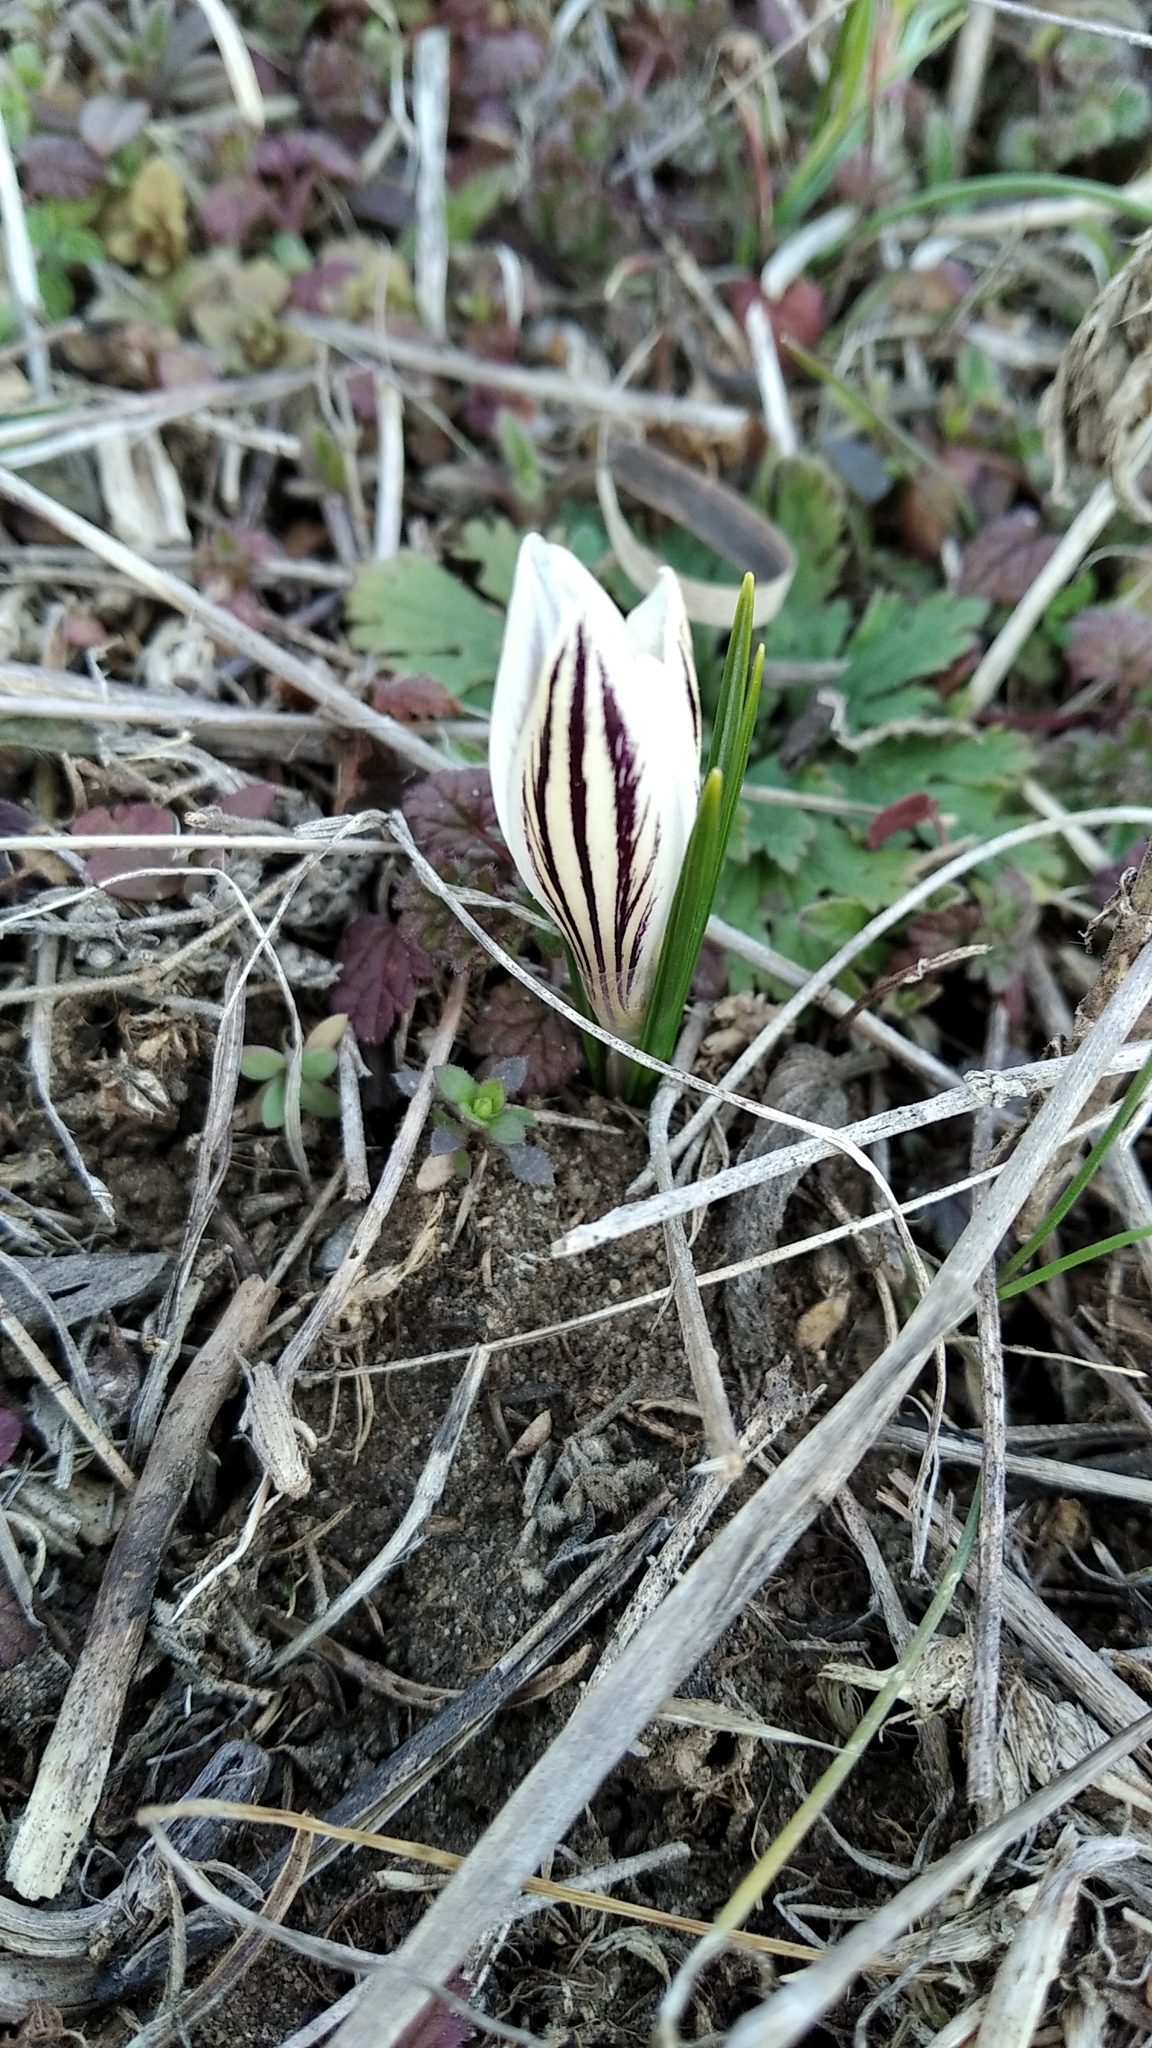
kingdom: Plantae
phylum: Tracheophyta
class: Liliopsida
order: Asparagales
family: Iridaceae
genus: Crocus
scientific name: Crocus reticulatus
